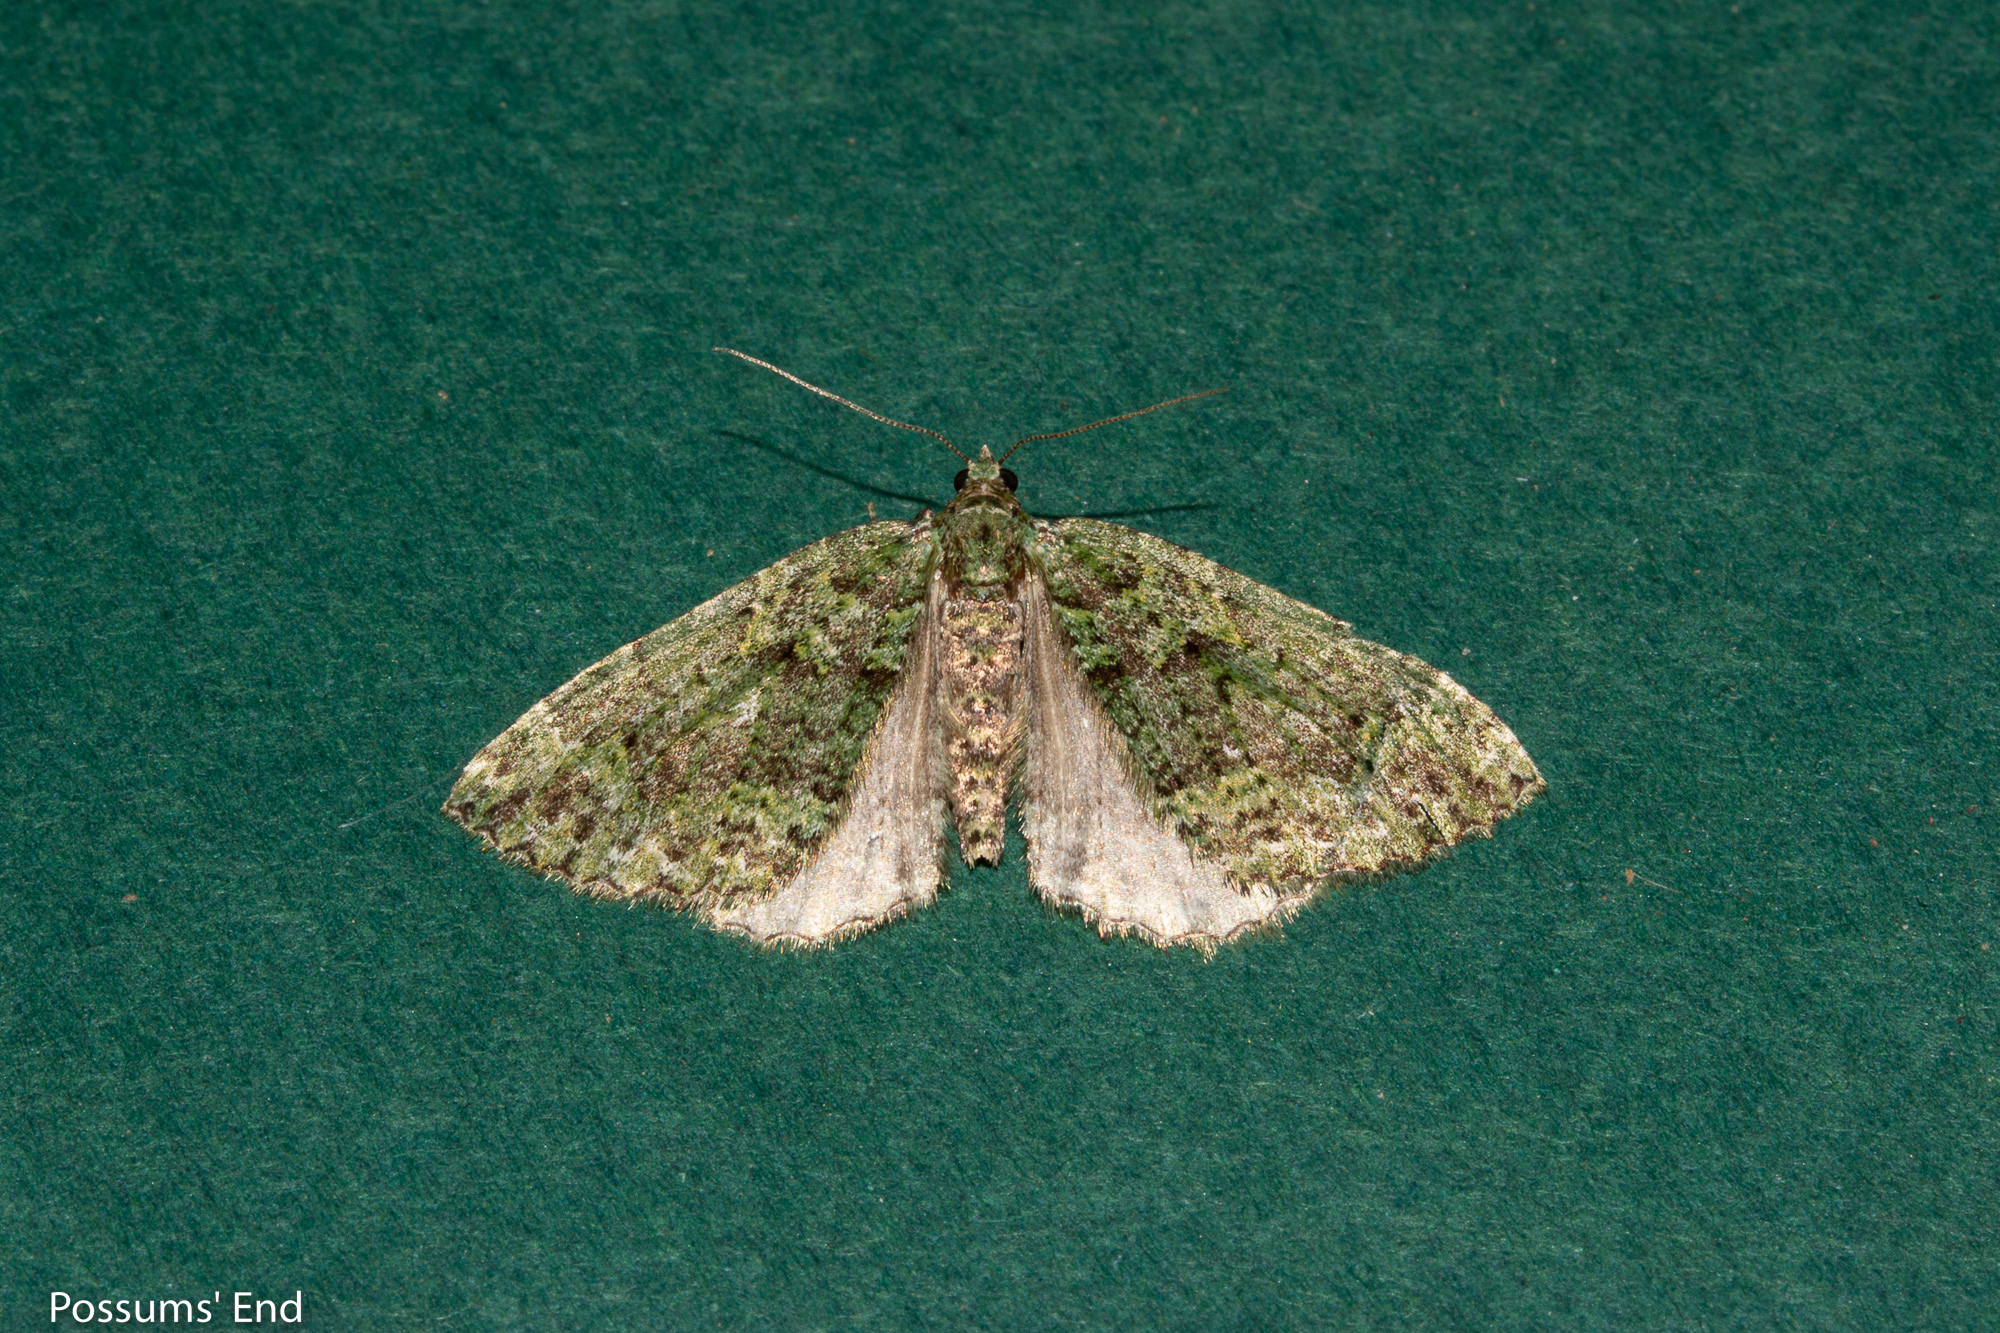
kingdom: Animalia
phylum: Arthropoda
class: Insecta
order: Lepidoptera
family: Geometridae
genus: Austrocidaria
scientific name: Austrocidaria callichlora
